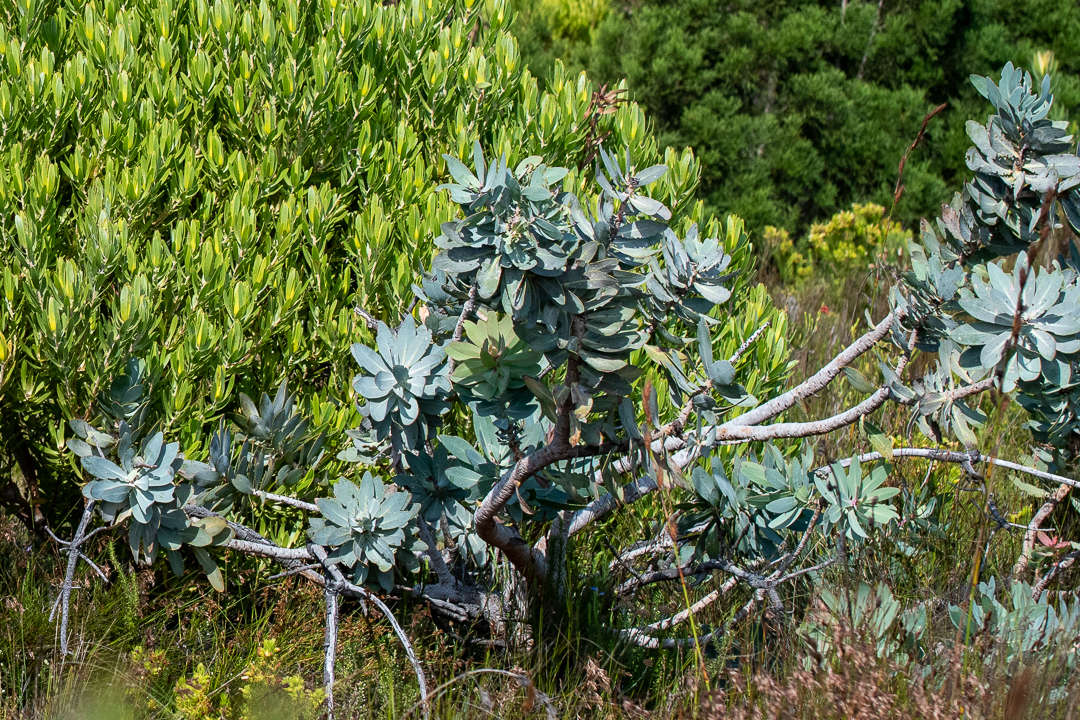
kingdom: Plantae
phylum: Tracheophyta
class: Magnoliopsida
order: Proteales
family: Proteaceae
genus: Protea
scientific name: Protea nitida
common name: Tree protea
